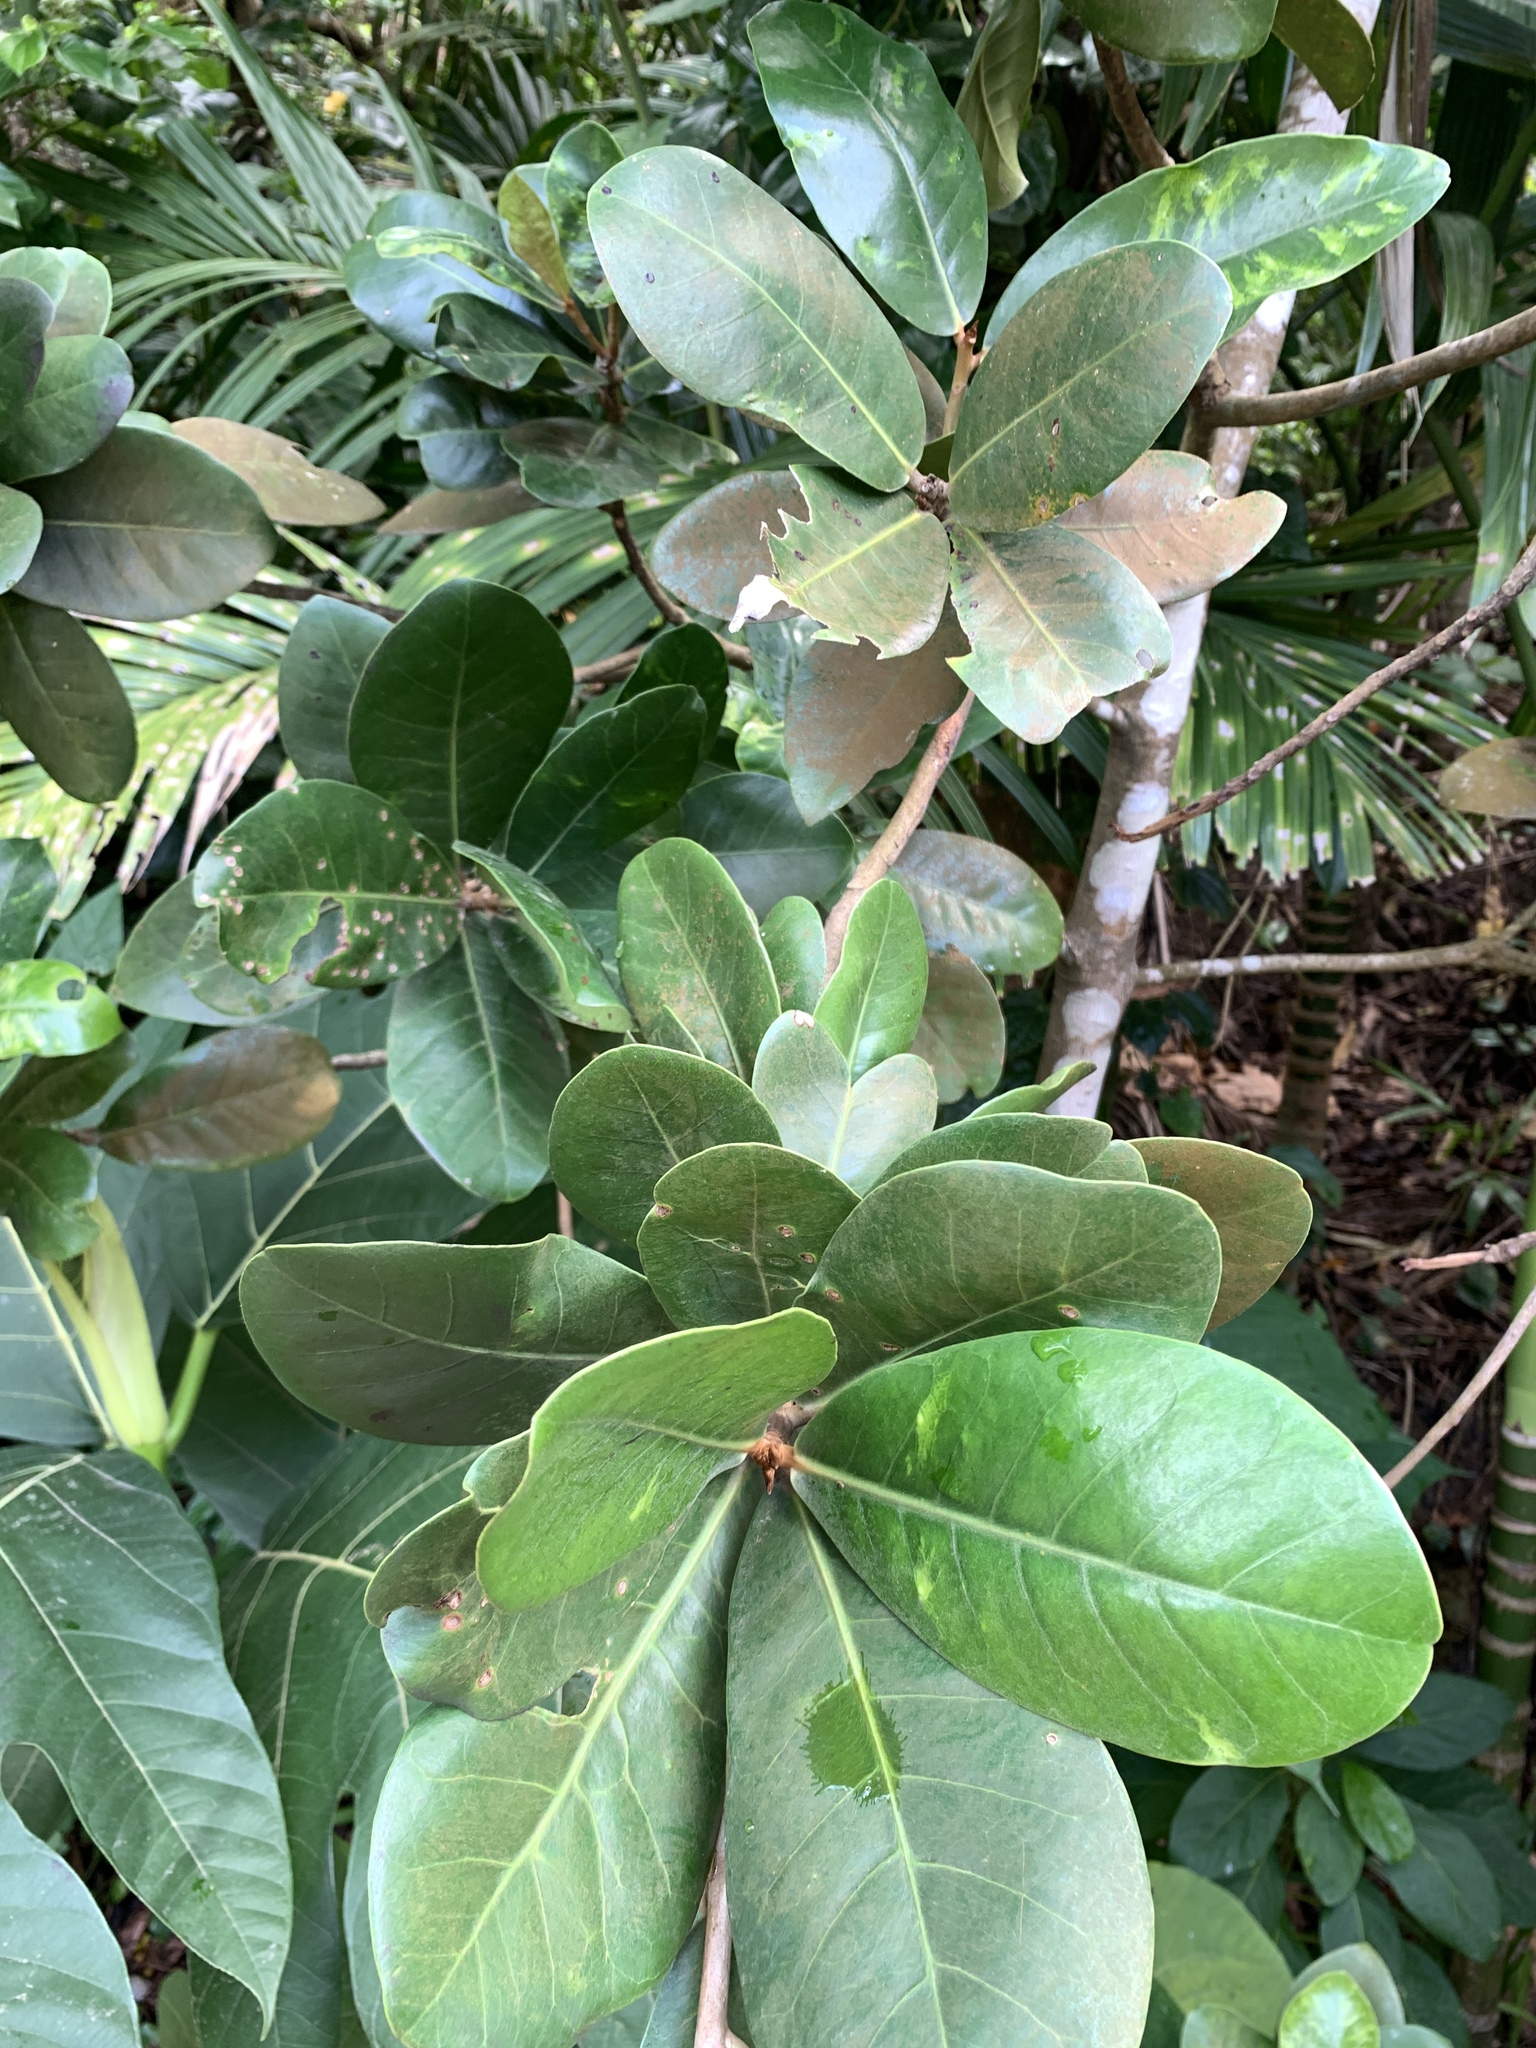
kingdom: Plantae
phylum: Tracheophyta
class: Magnoliopsida
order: Ericales
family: Sapotaceae
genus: Palaquium
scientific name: Palaquium formosanum
